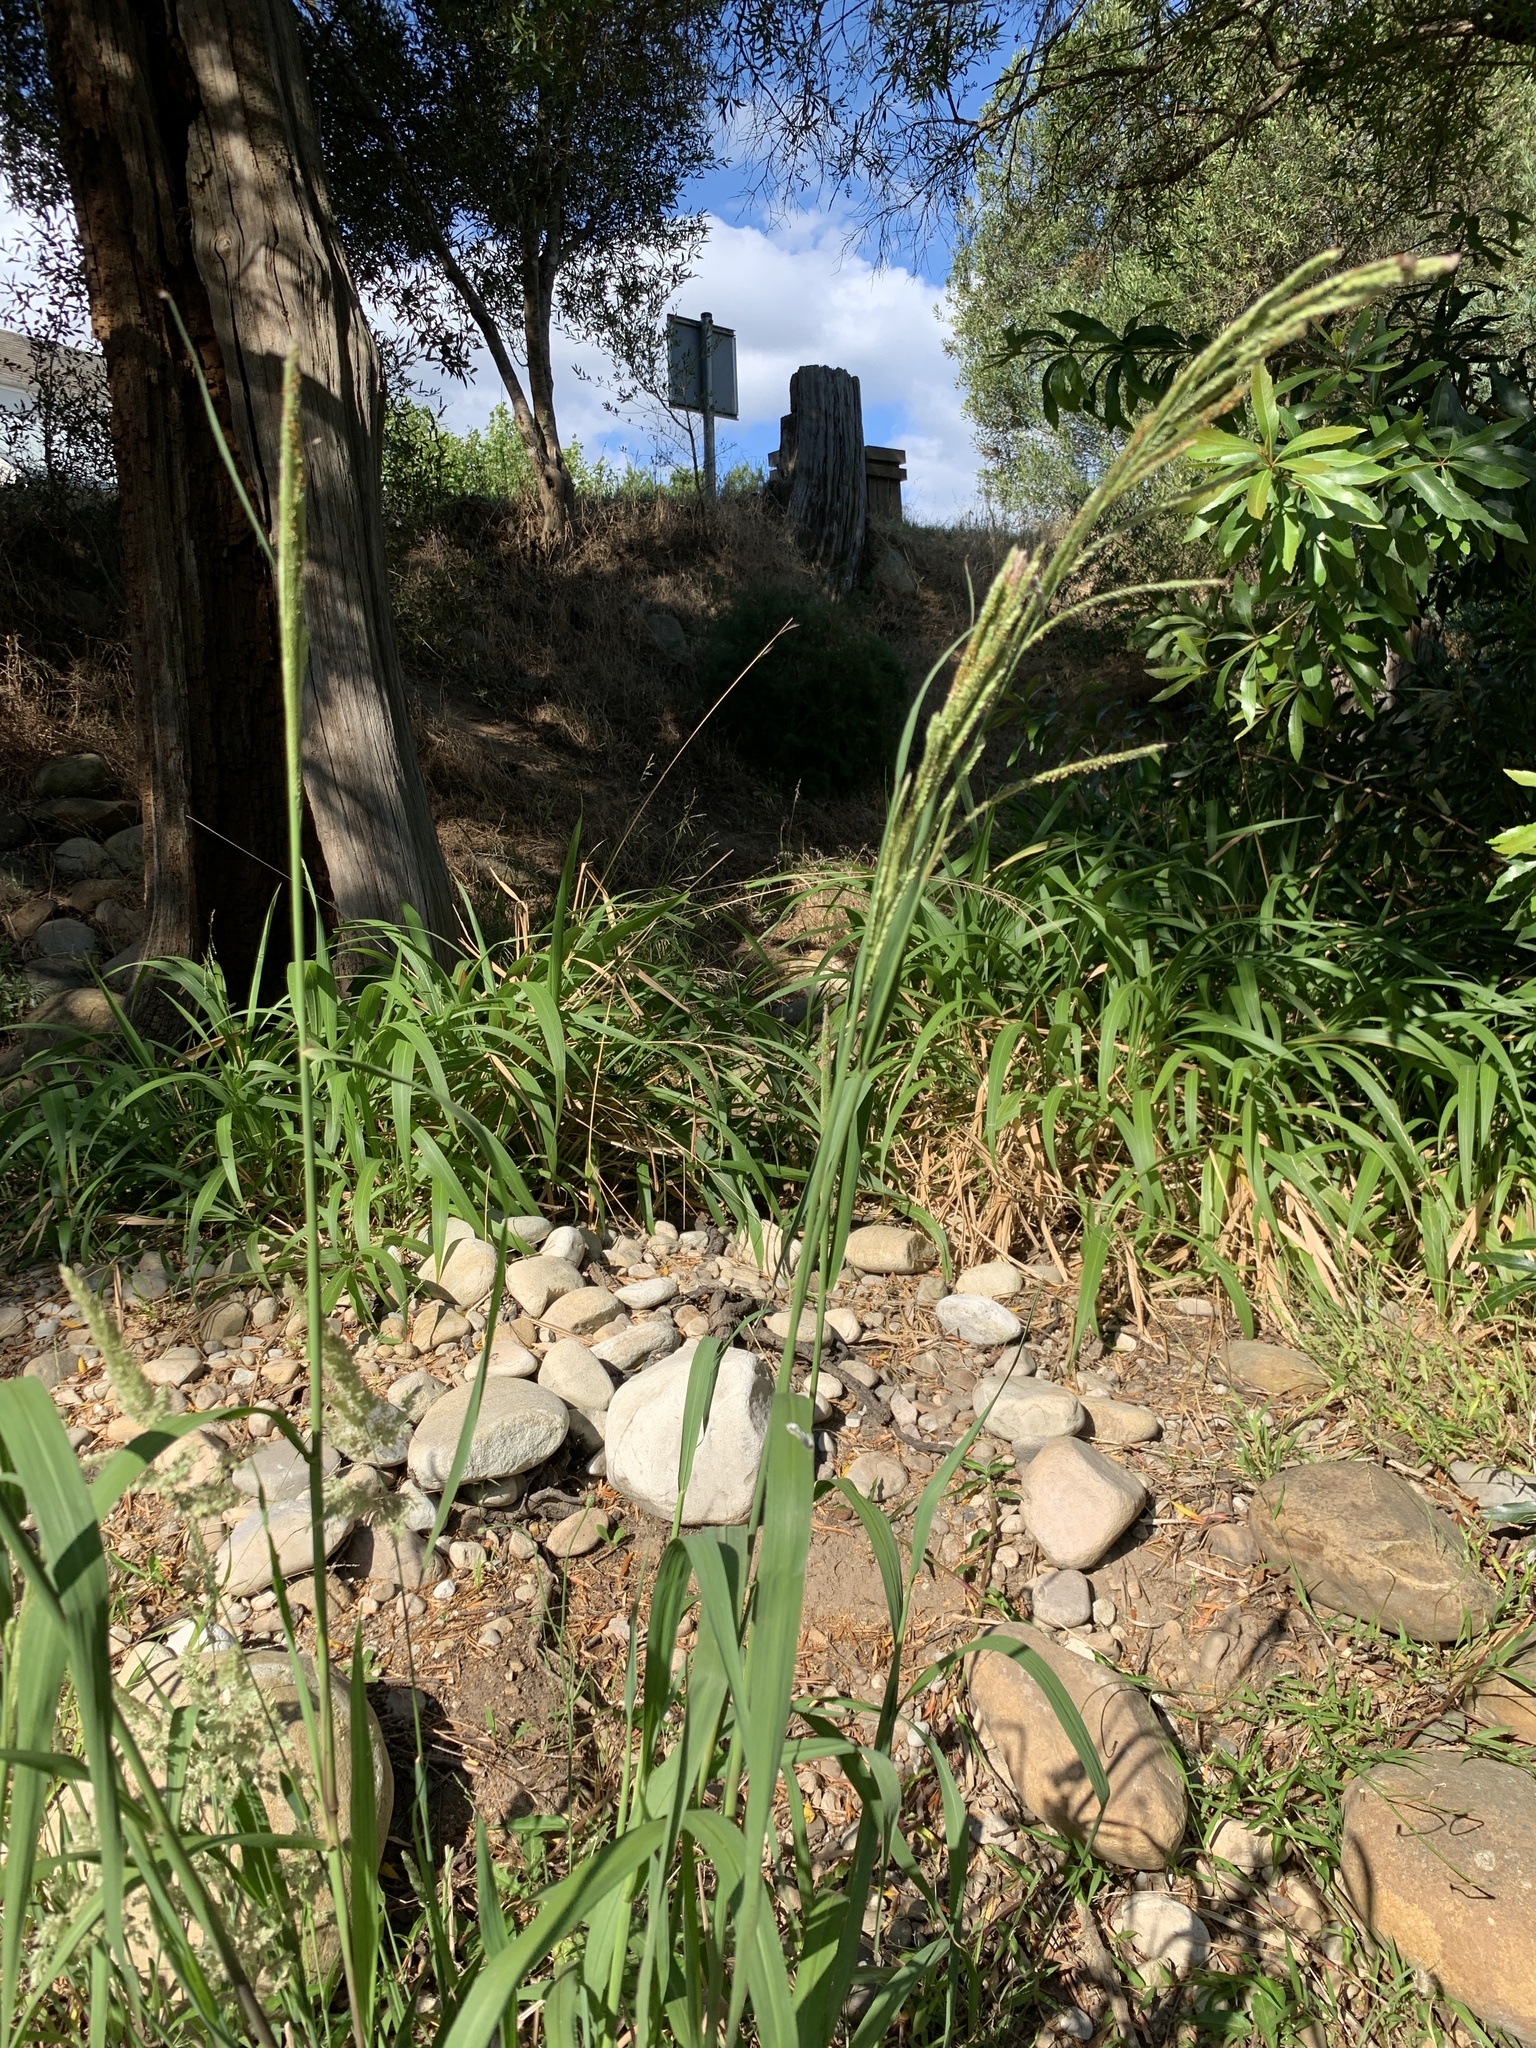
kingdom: Plantae
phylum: Tracheophyta
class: Liliopsida
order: Poales
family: Poaceae
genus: Paspalum
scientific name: Paspalum urvillei
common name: Vasey's grass
